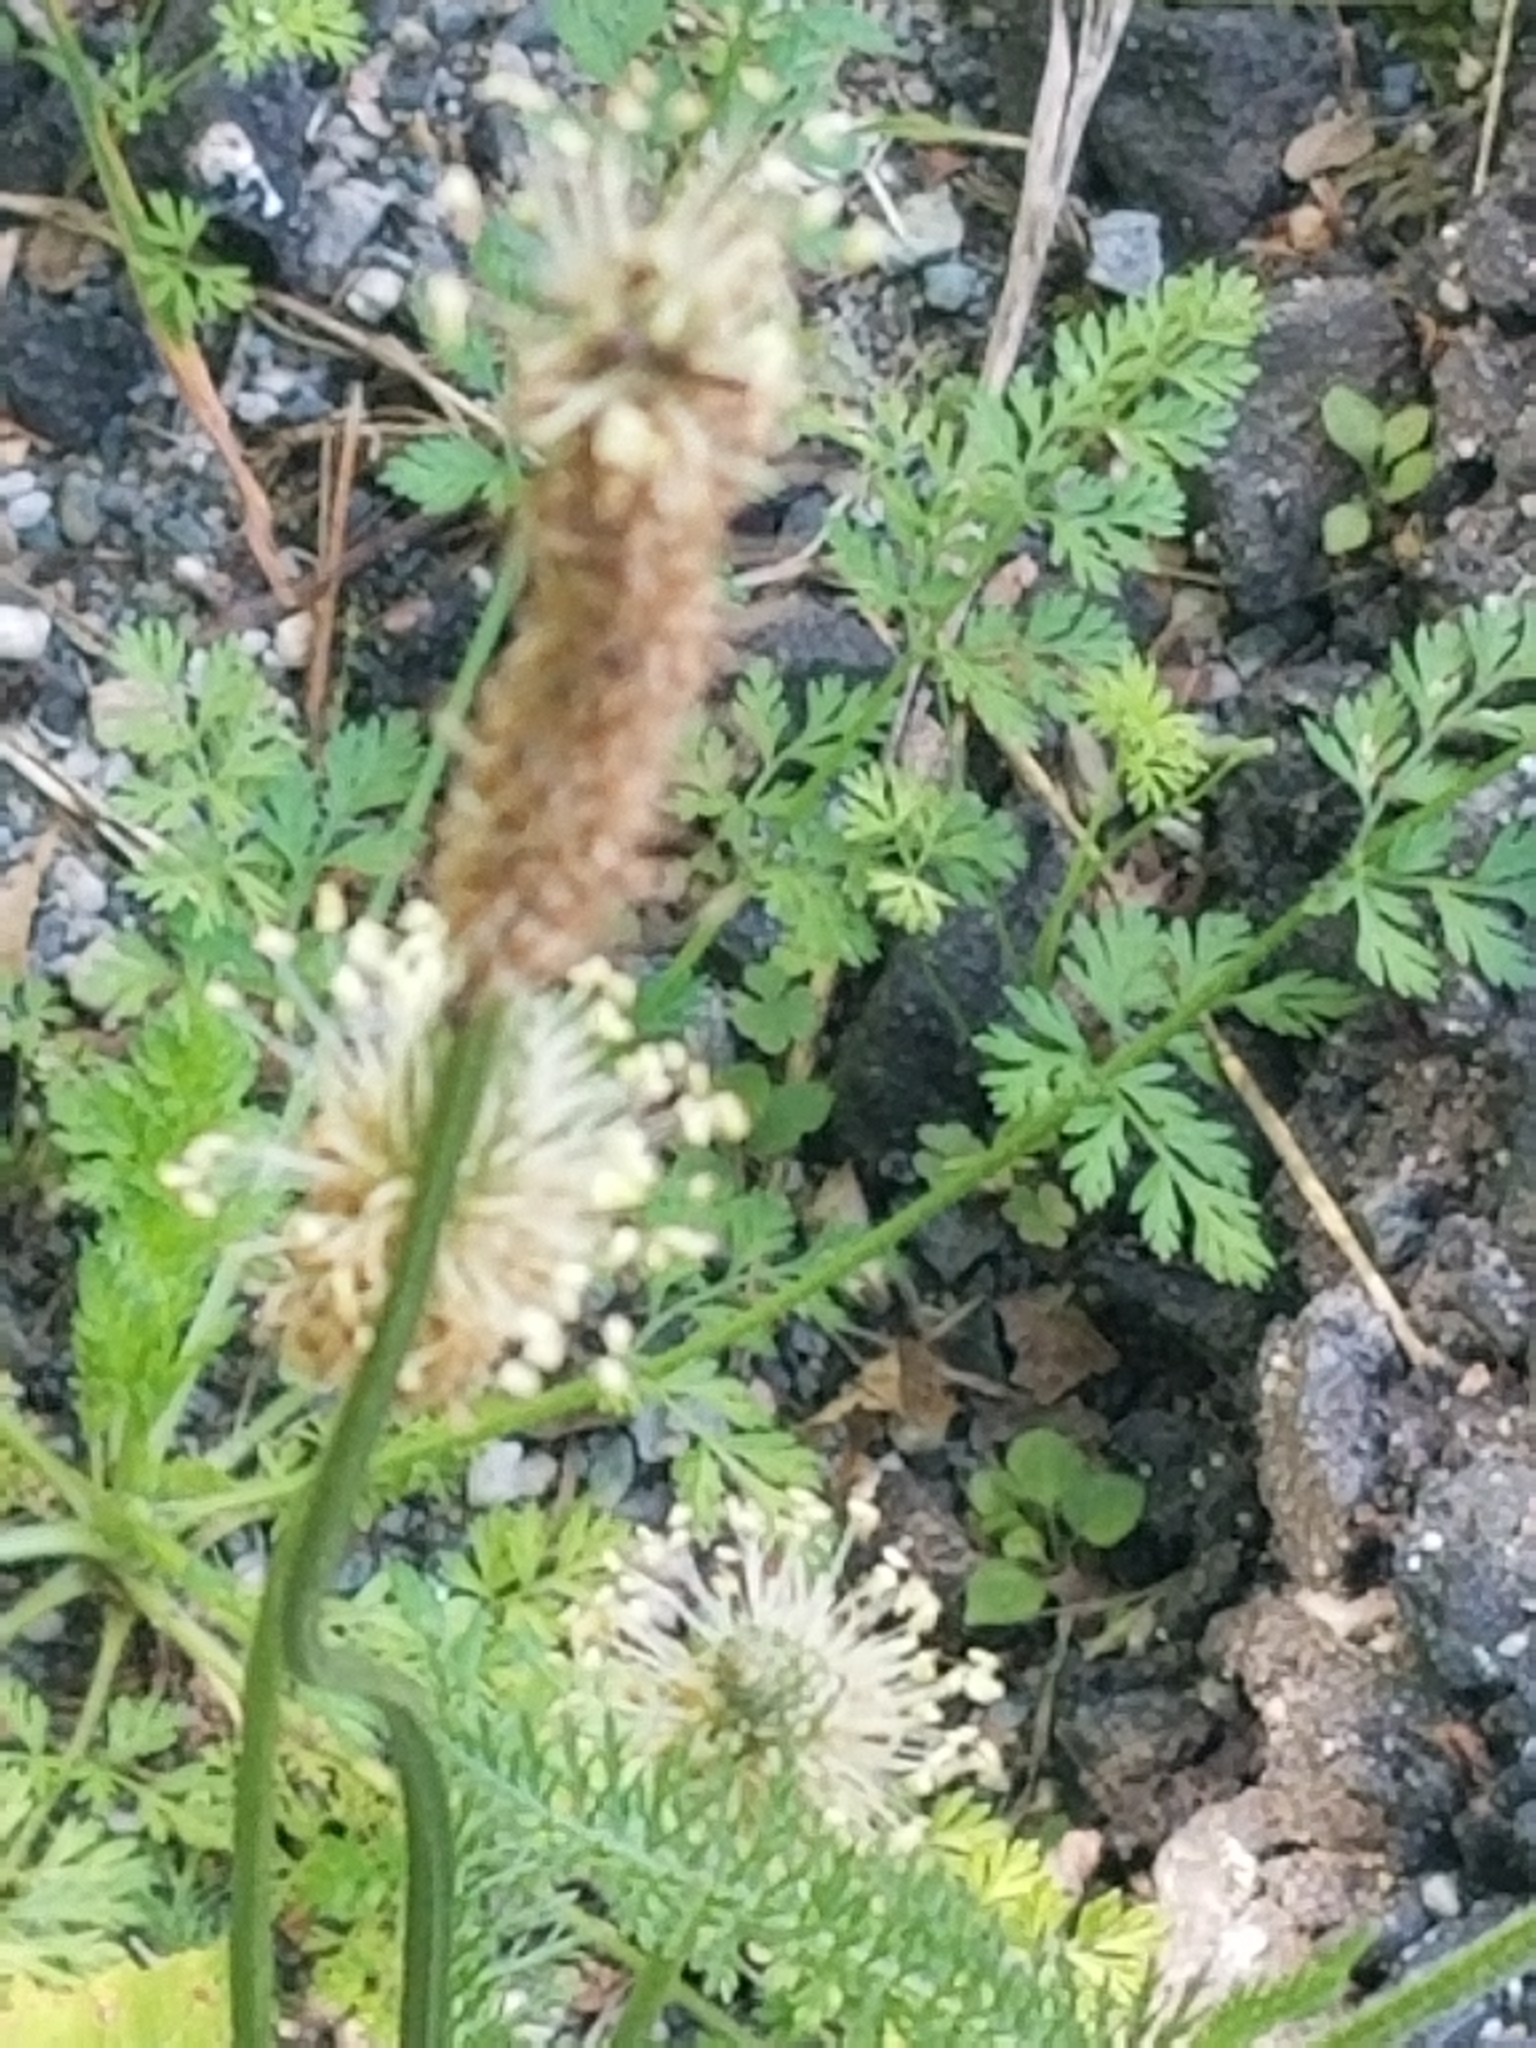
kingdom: Plantae
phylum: Tracheophyta
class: Magnoliopsida
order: Lamiales
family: Plantaginaceae
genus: Plantago
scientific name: Plantago lanceolata
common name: Ribwort plantain
